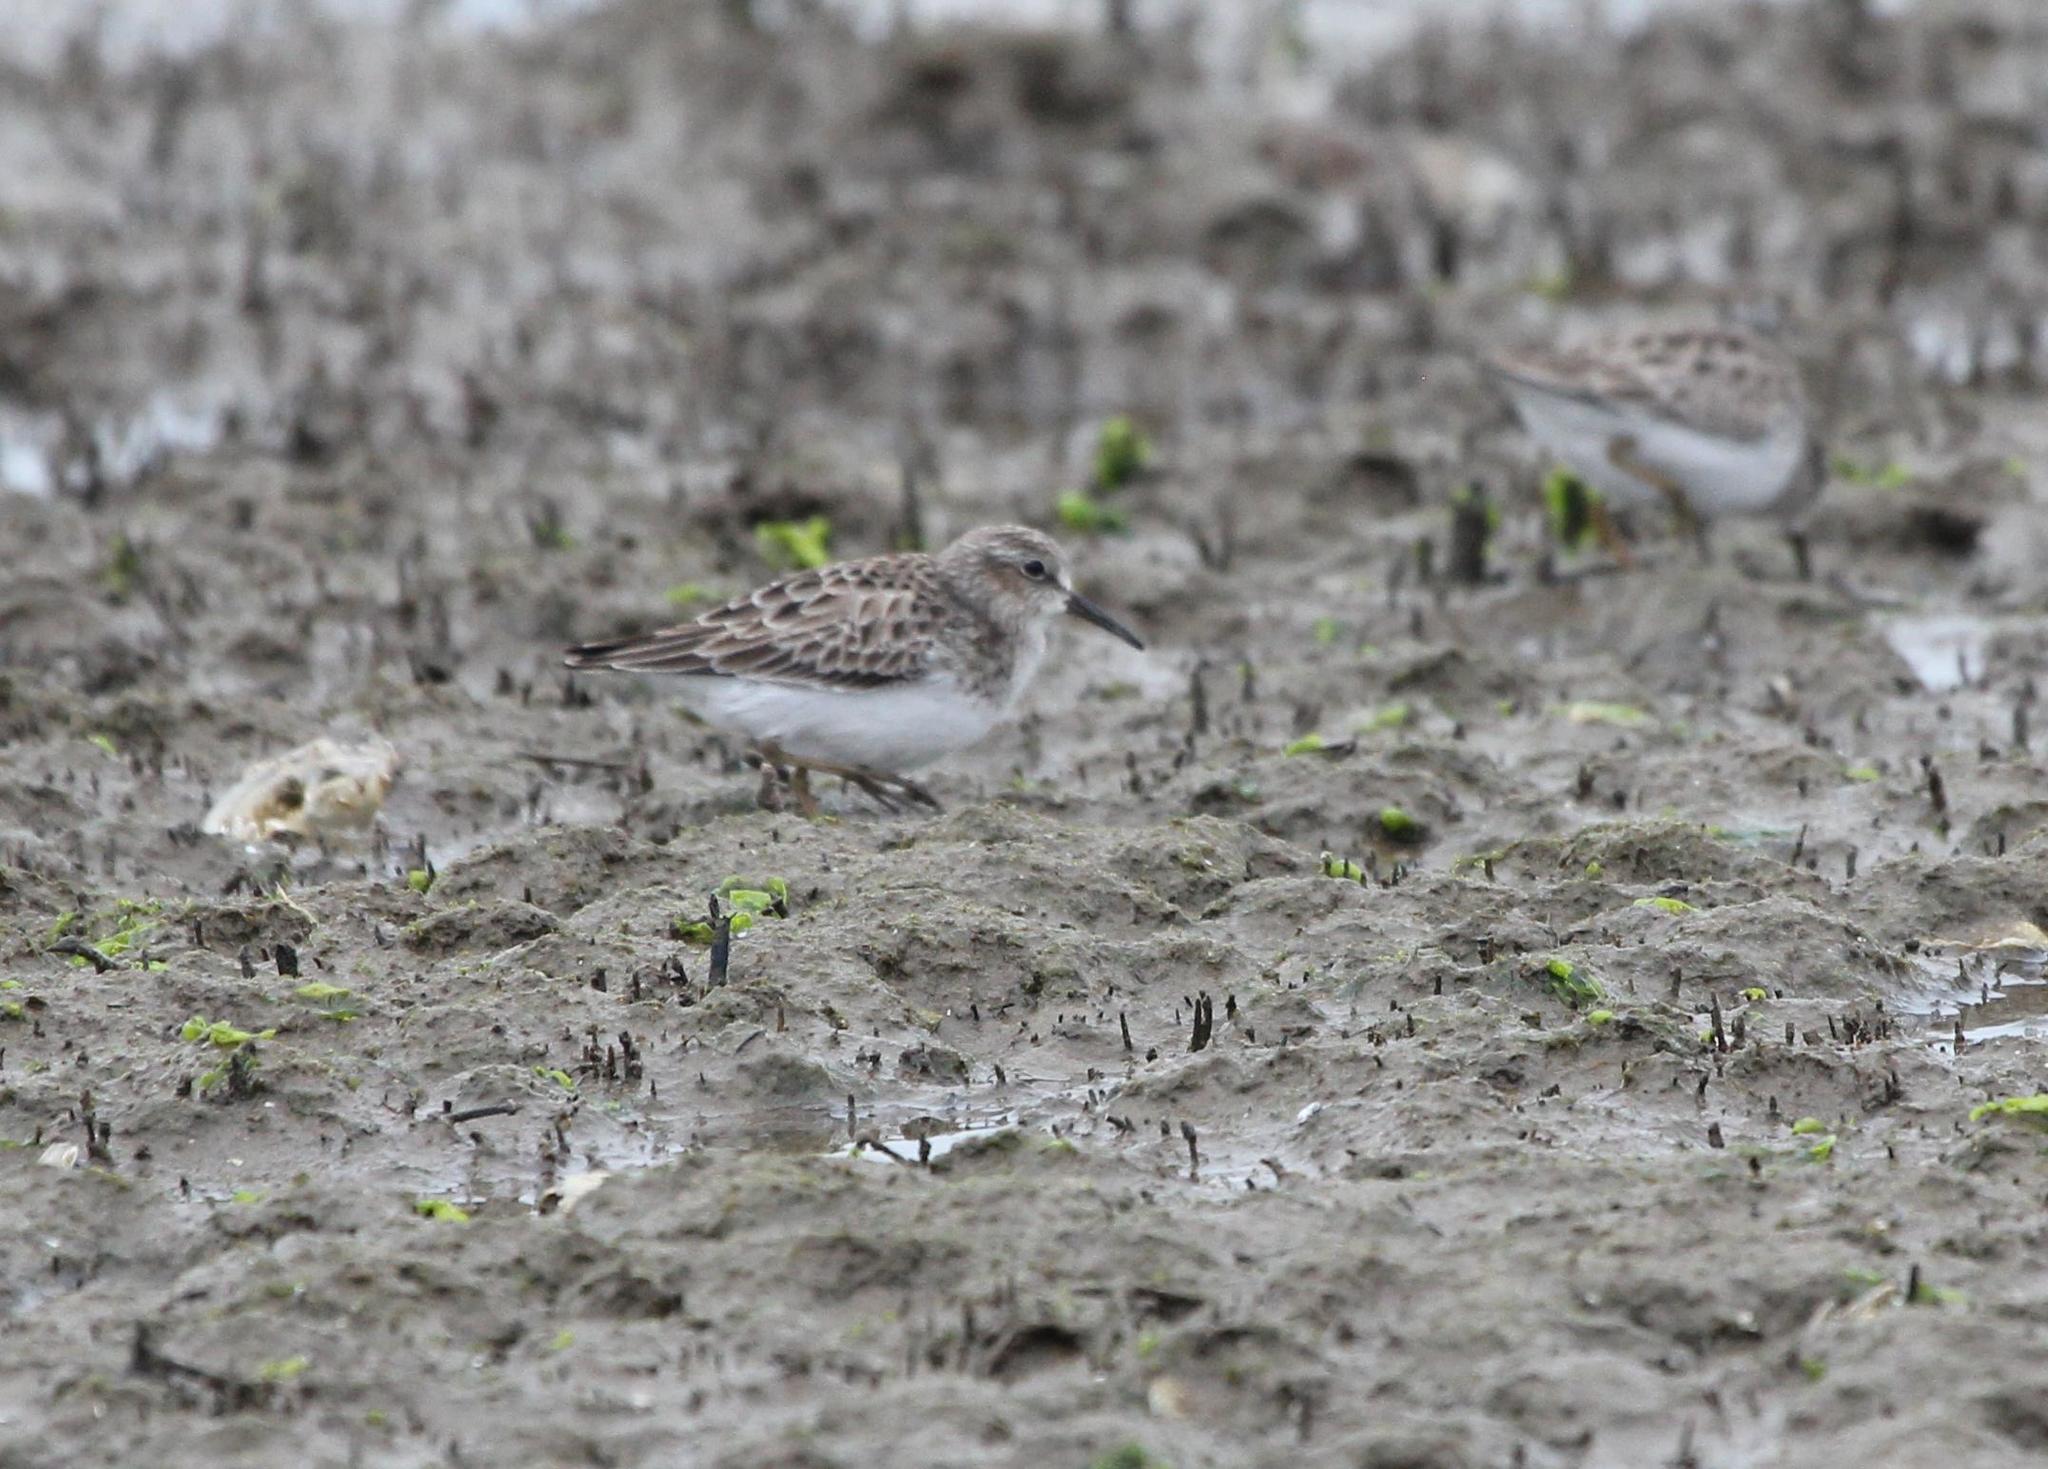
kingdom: Animalia
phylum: Chordata
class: Aves
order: Charadriiformes
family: Scolopacidae
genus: Calidris
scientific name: Calidris minutilla
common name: Least sandpiper
